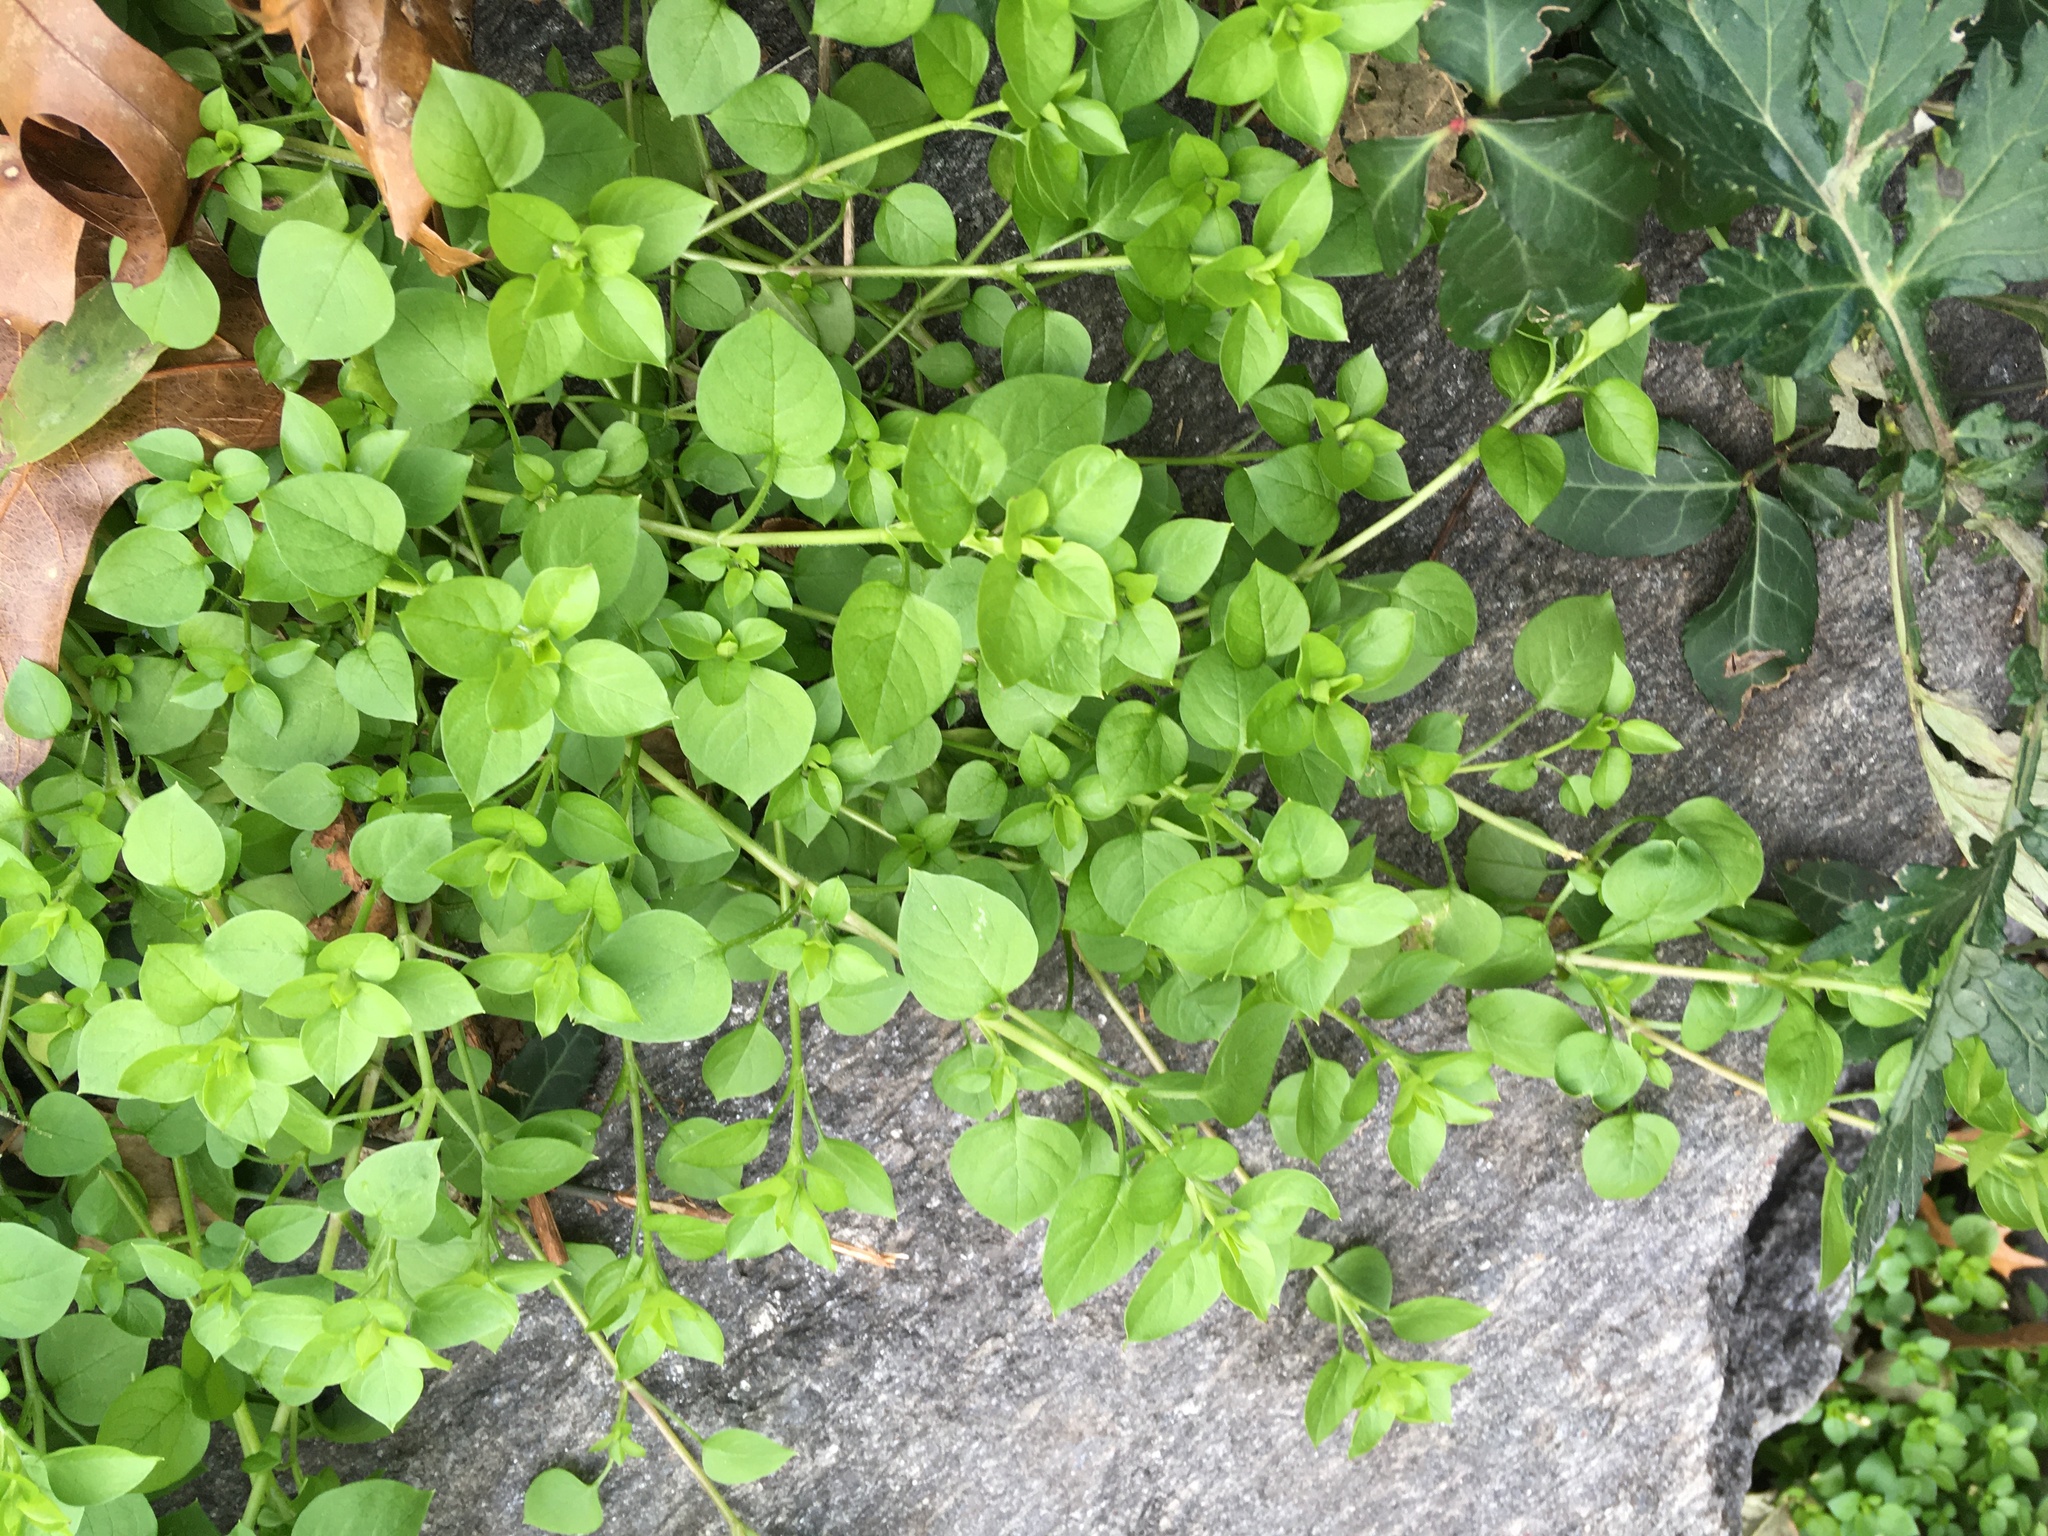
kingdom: Plantae
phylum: Tracheophyta
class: Magnoliopsida
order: Caryophyllales
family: Caryophyllaceae
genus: Stellaria
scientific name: Stellaria media
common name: Common chickweed
